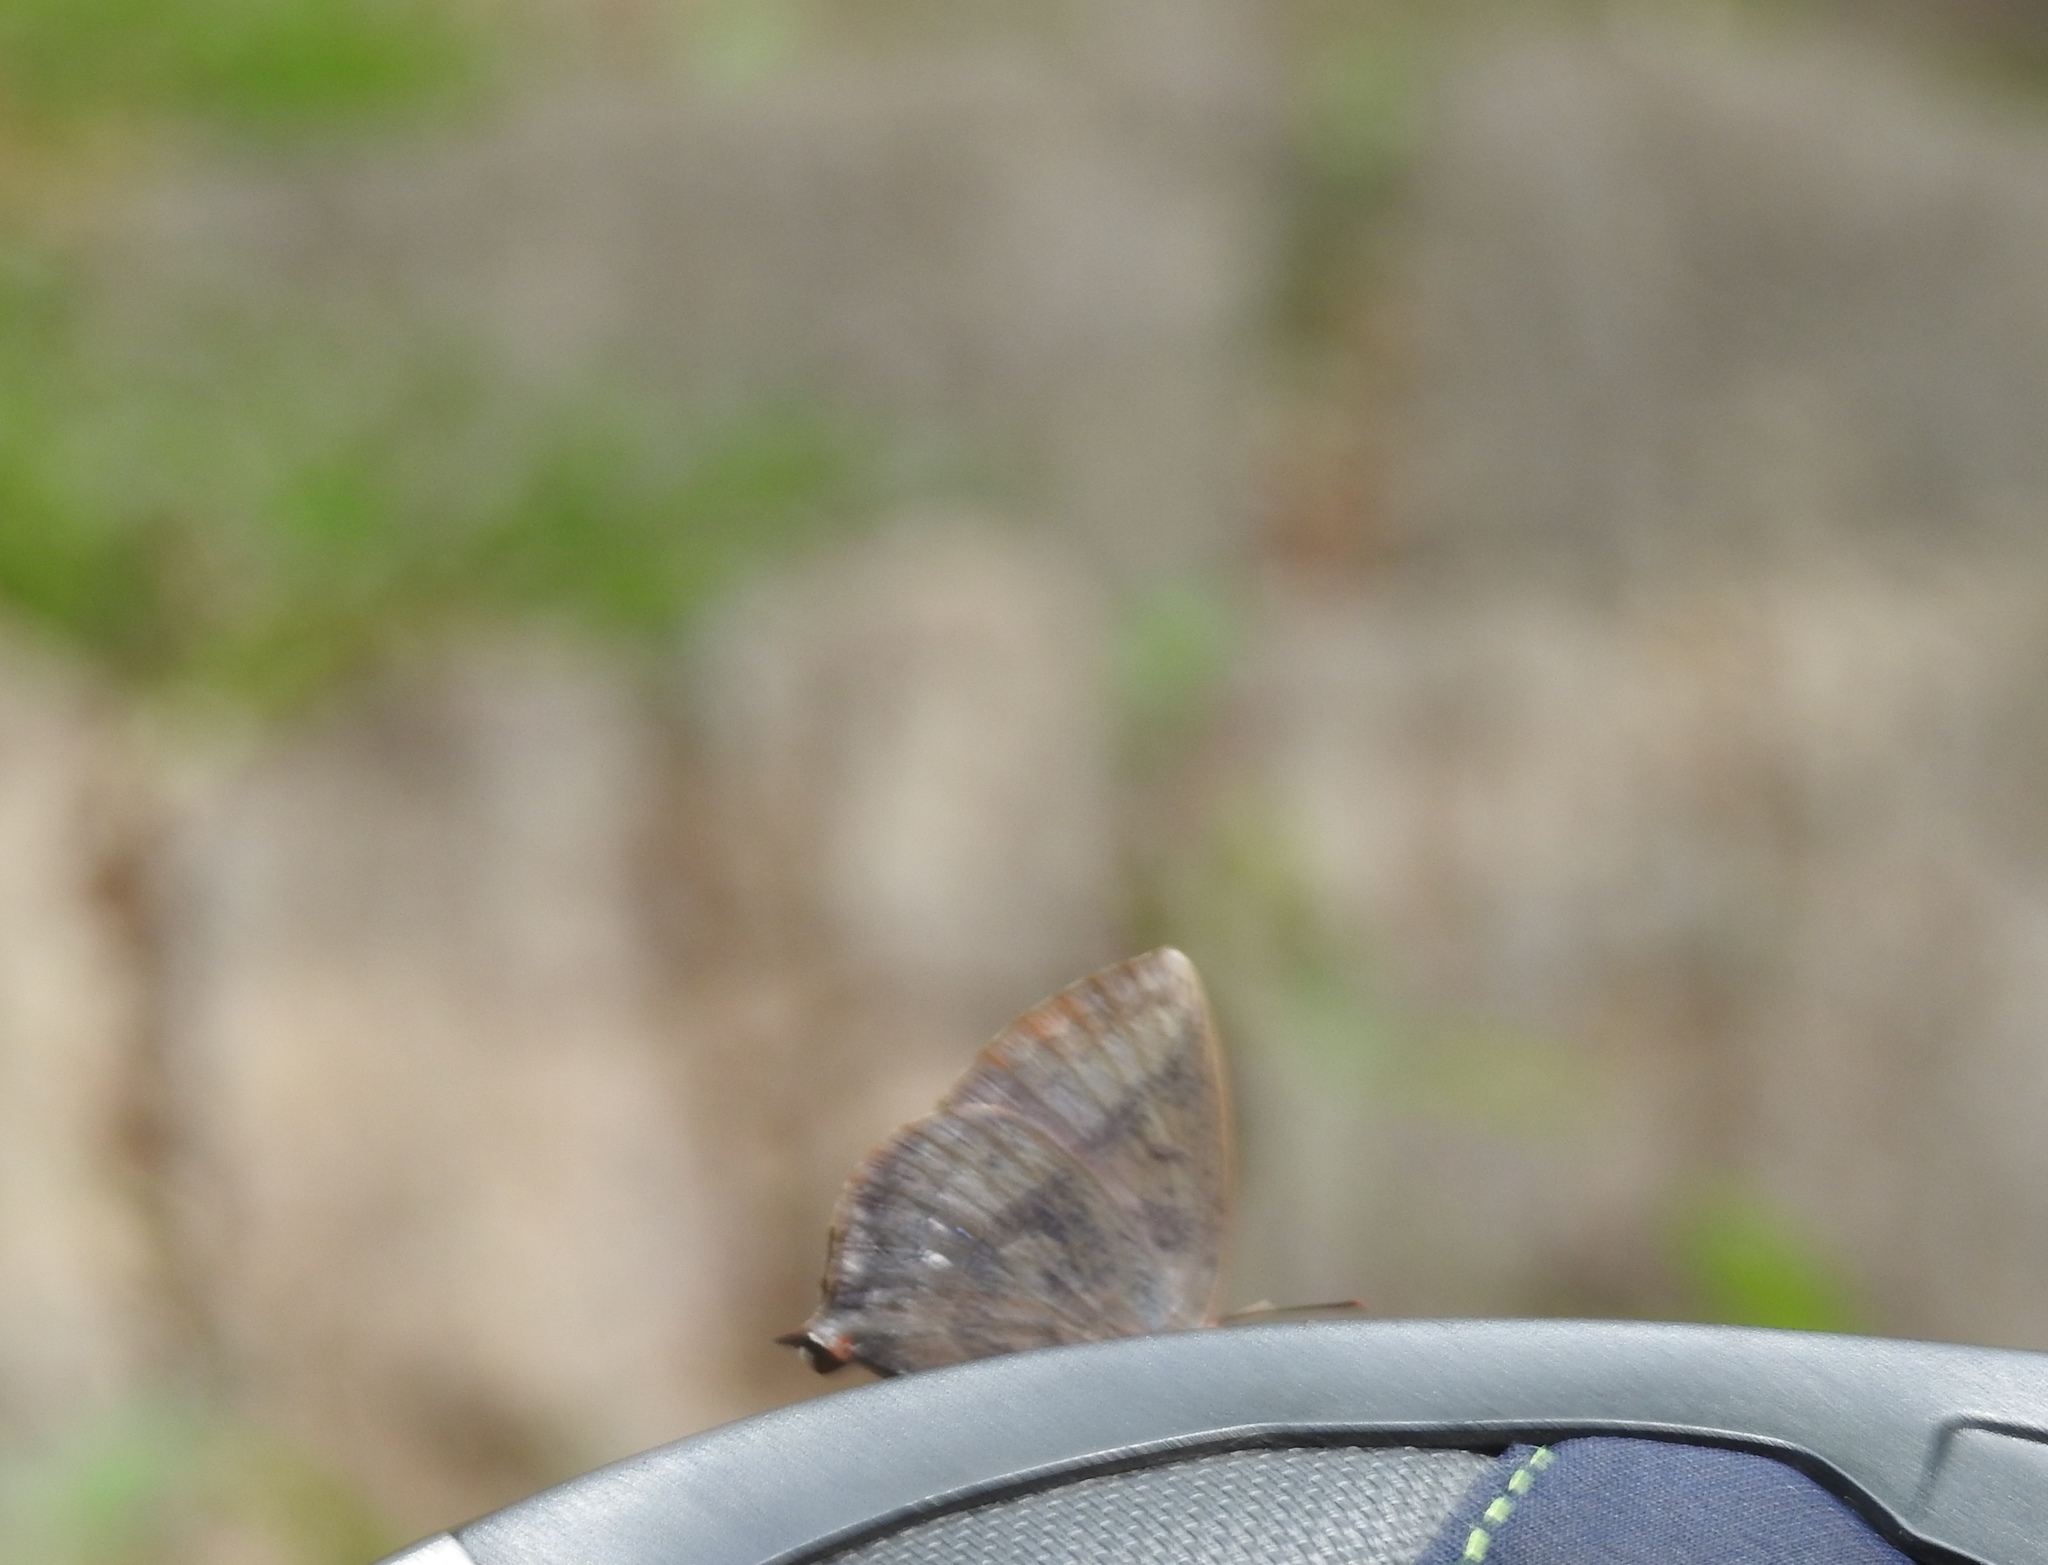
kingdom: Animalia
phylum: Arthropoda
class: Insecta
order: Lepidoptera
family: Lycaenidae
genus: Amblypodia
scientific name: Amblypodia anita
